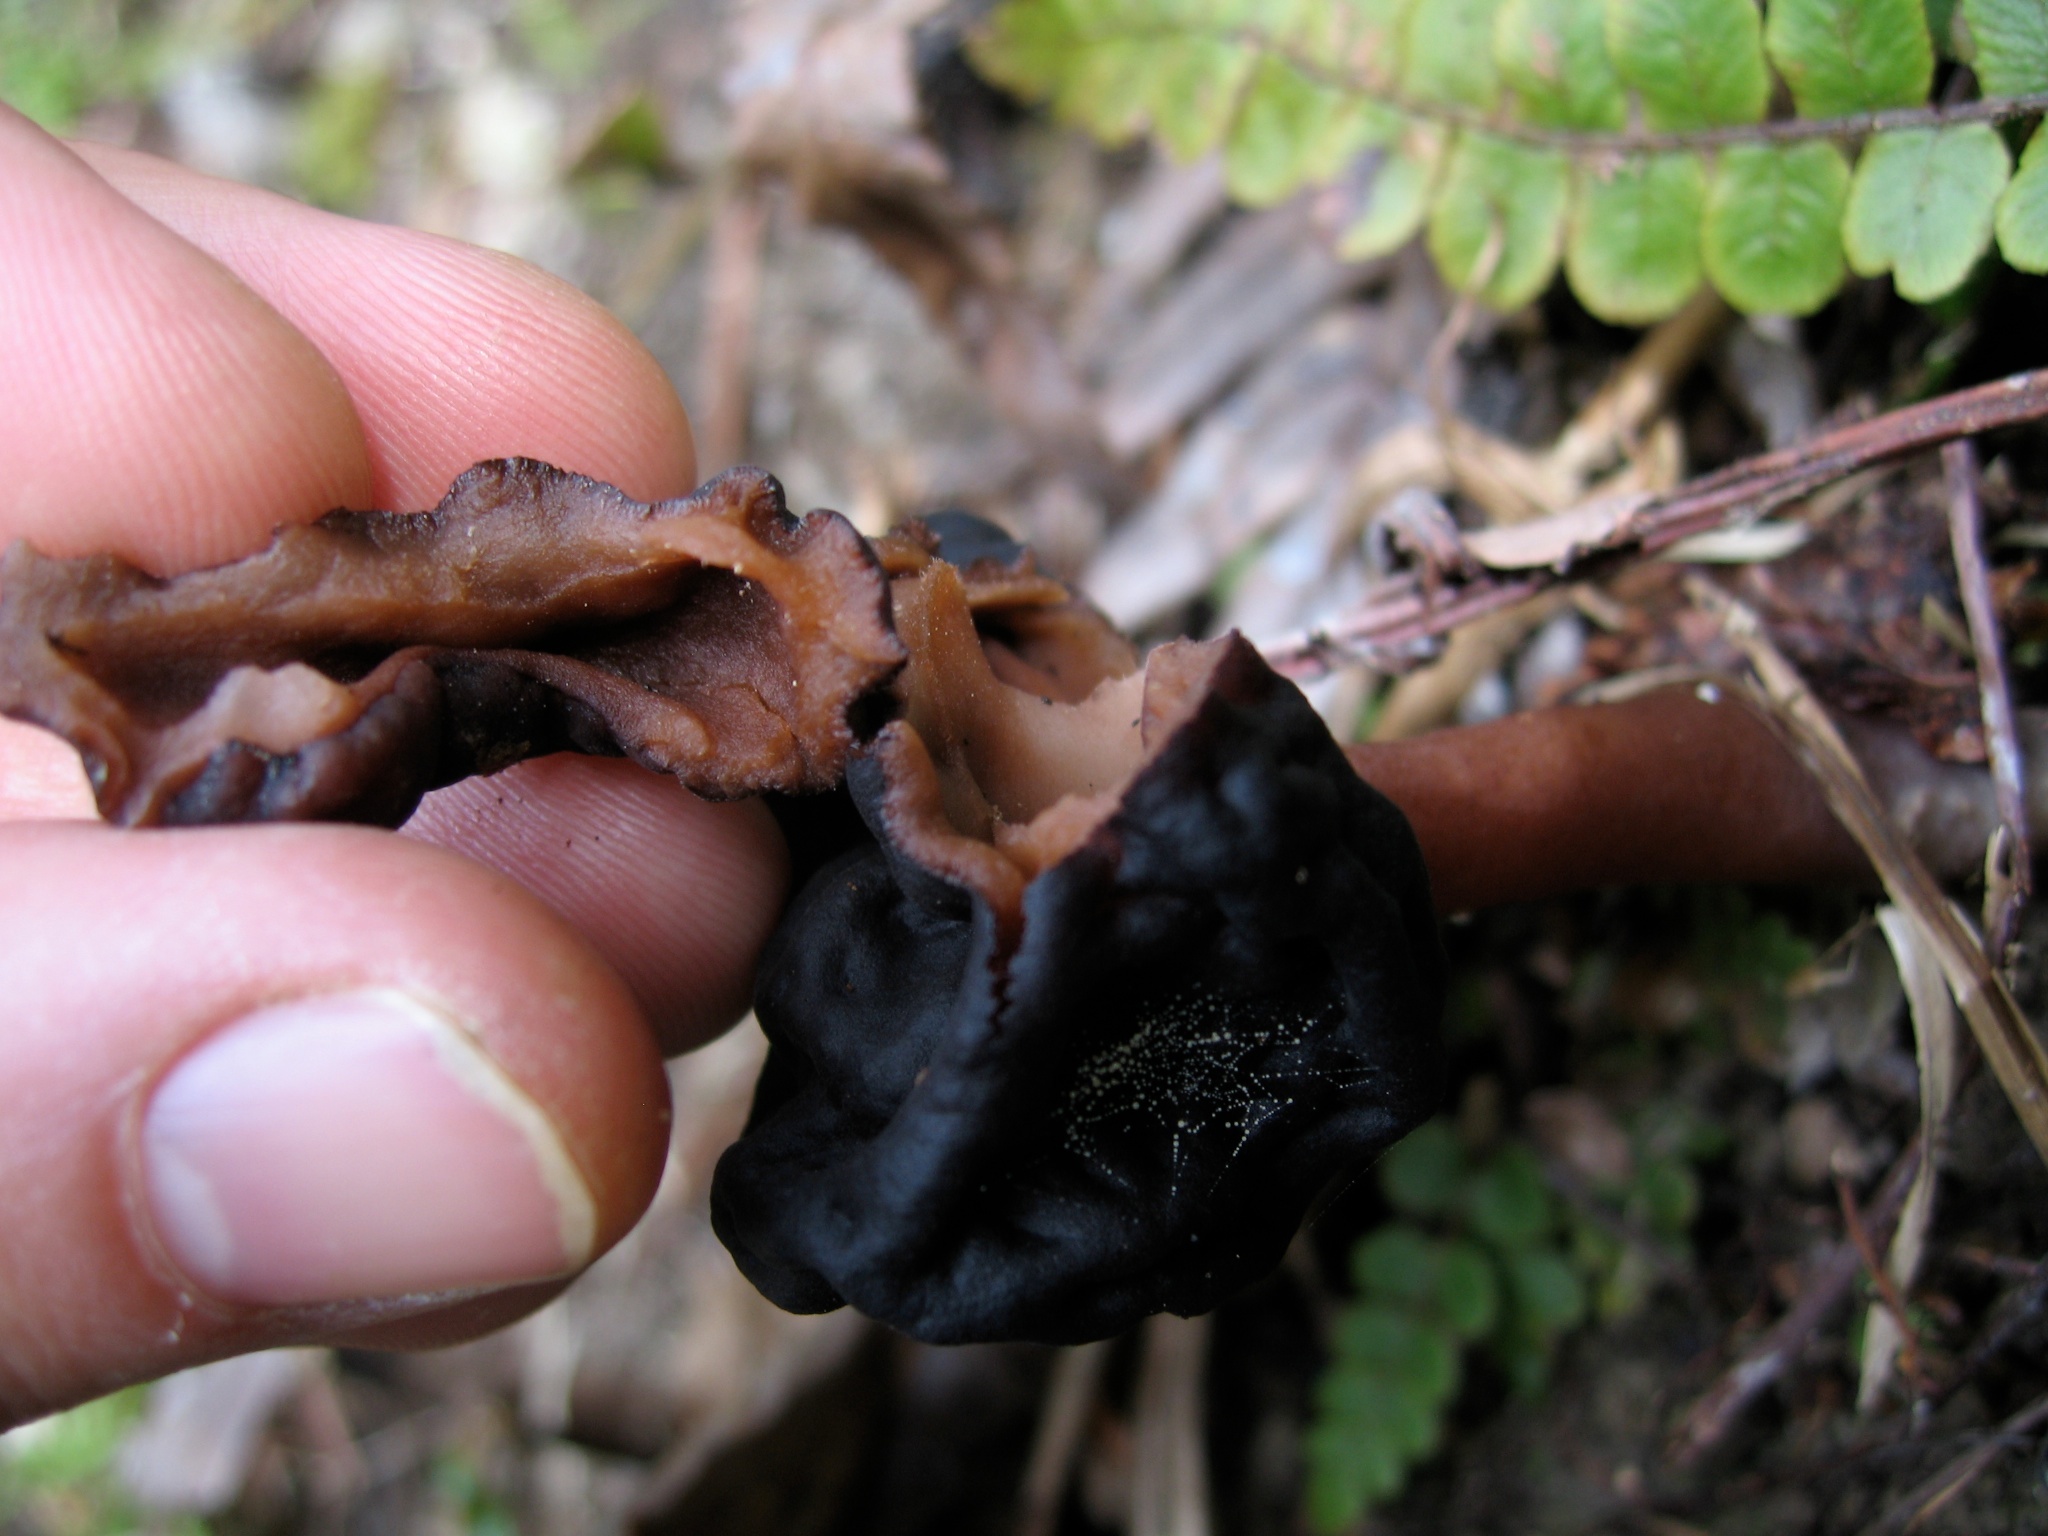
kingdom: Fungi
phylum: Ascomycota
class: Pezizomycetes
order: Pezizales
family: Discinaceae
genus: Gyromitra
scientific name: Gyromitra tasmanica
